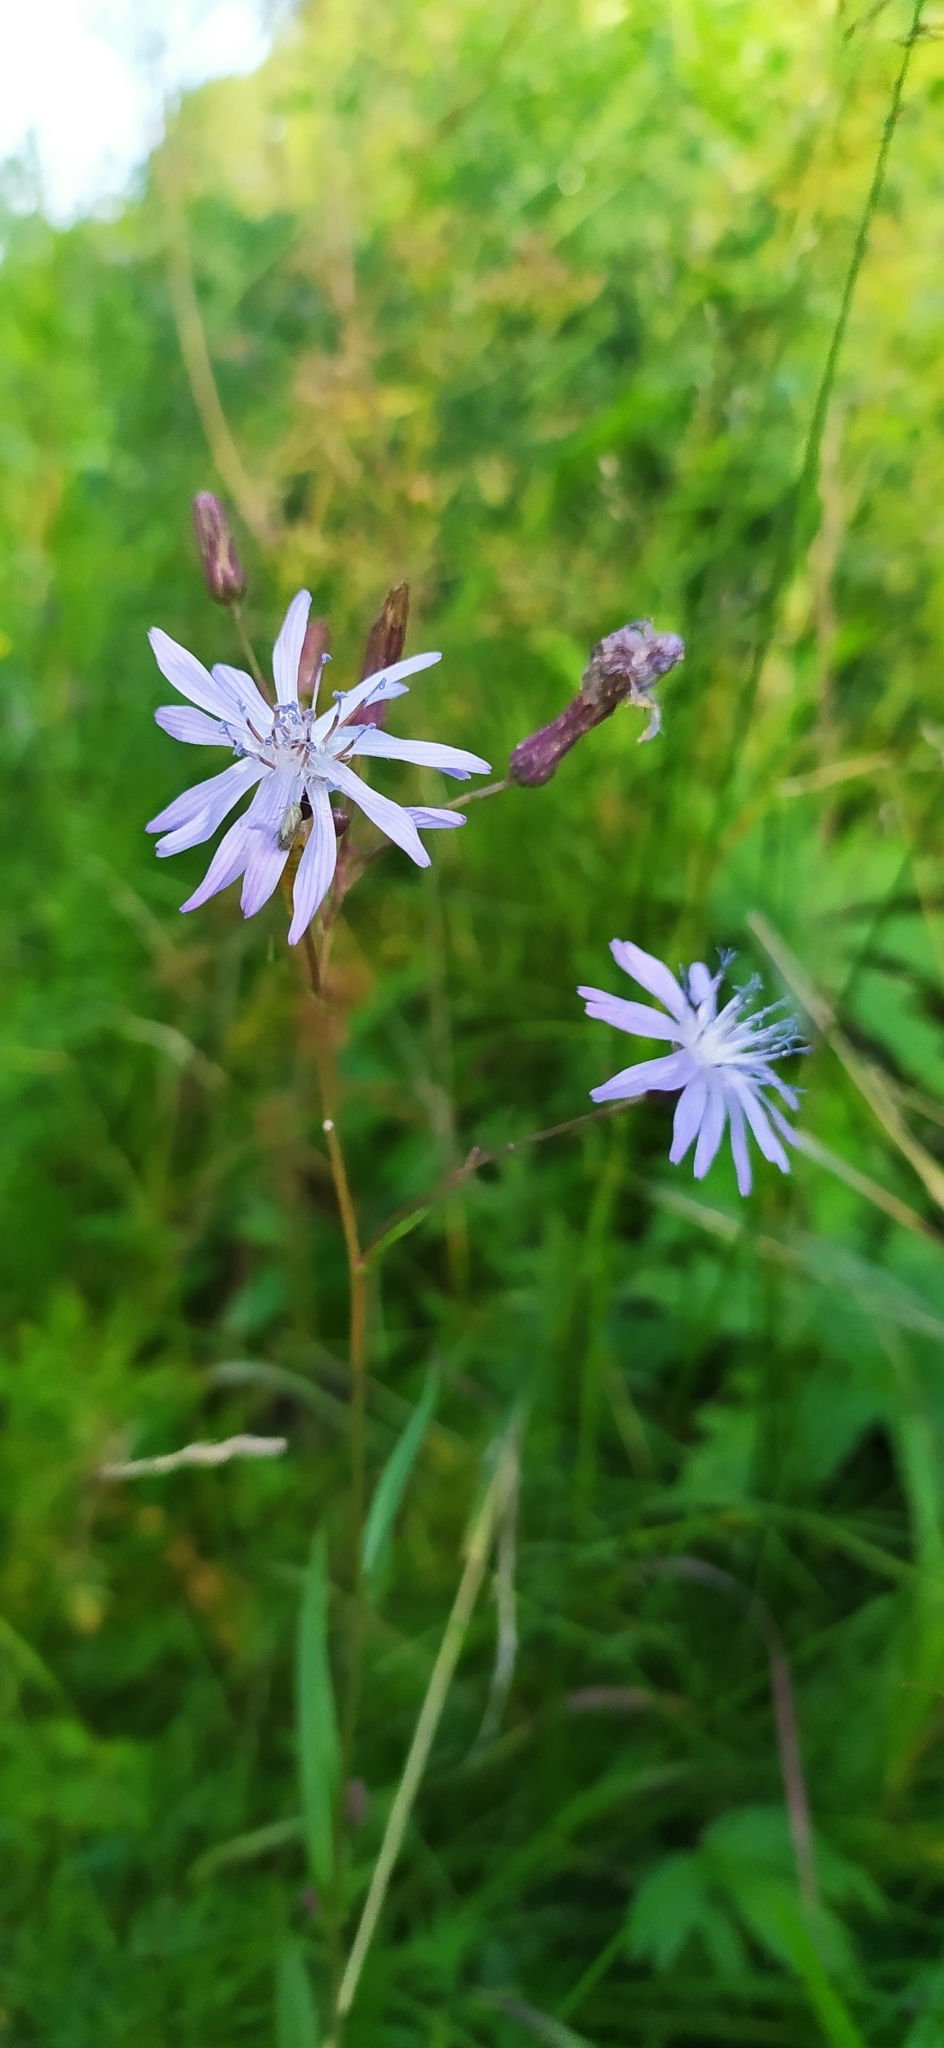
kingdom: Plantae
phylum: Tracheophyta
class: Magnoliopsida
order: Asterales
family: Asteraceae
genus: Lactuca
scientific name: Lactuca sibirica
